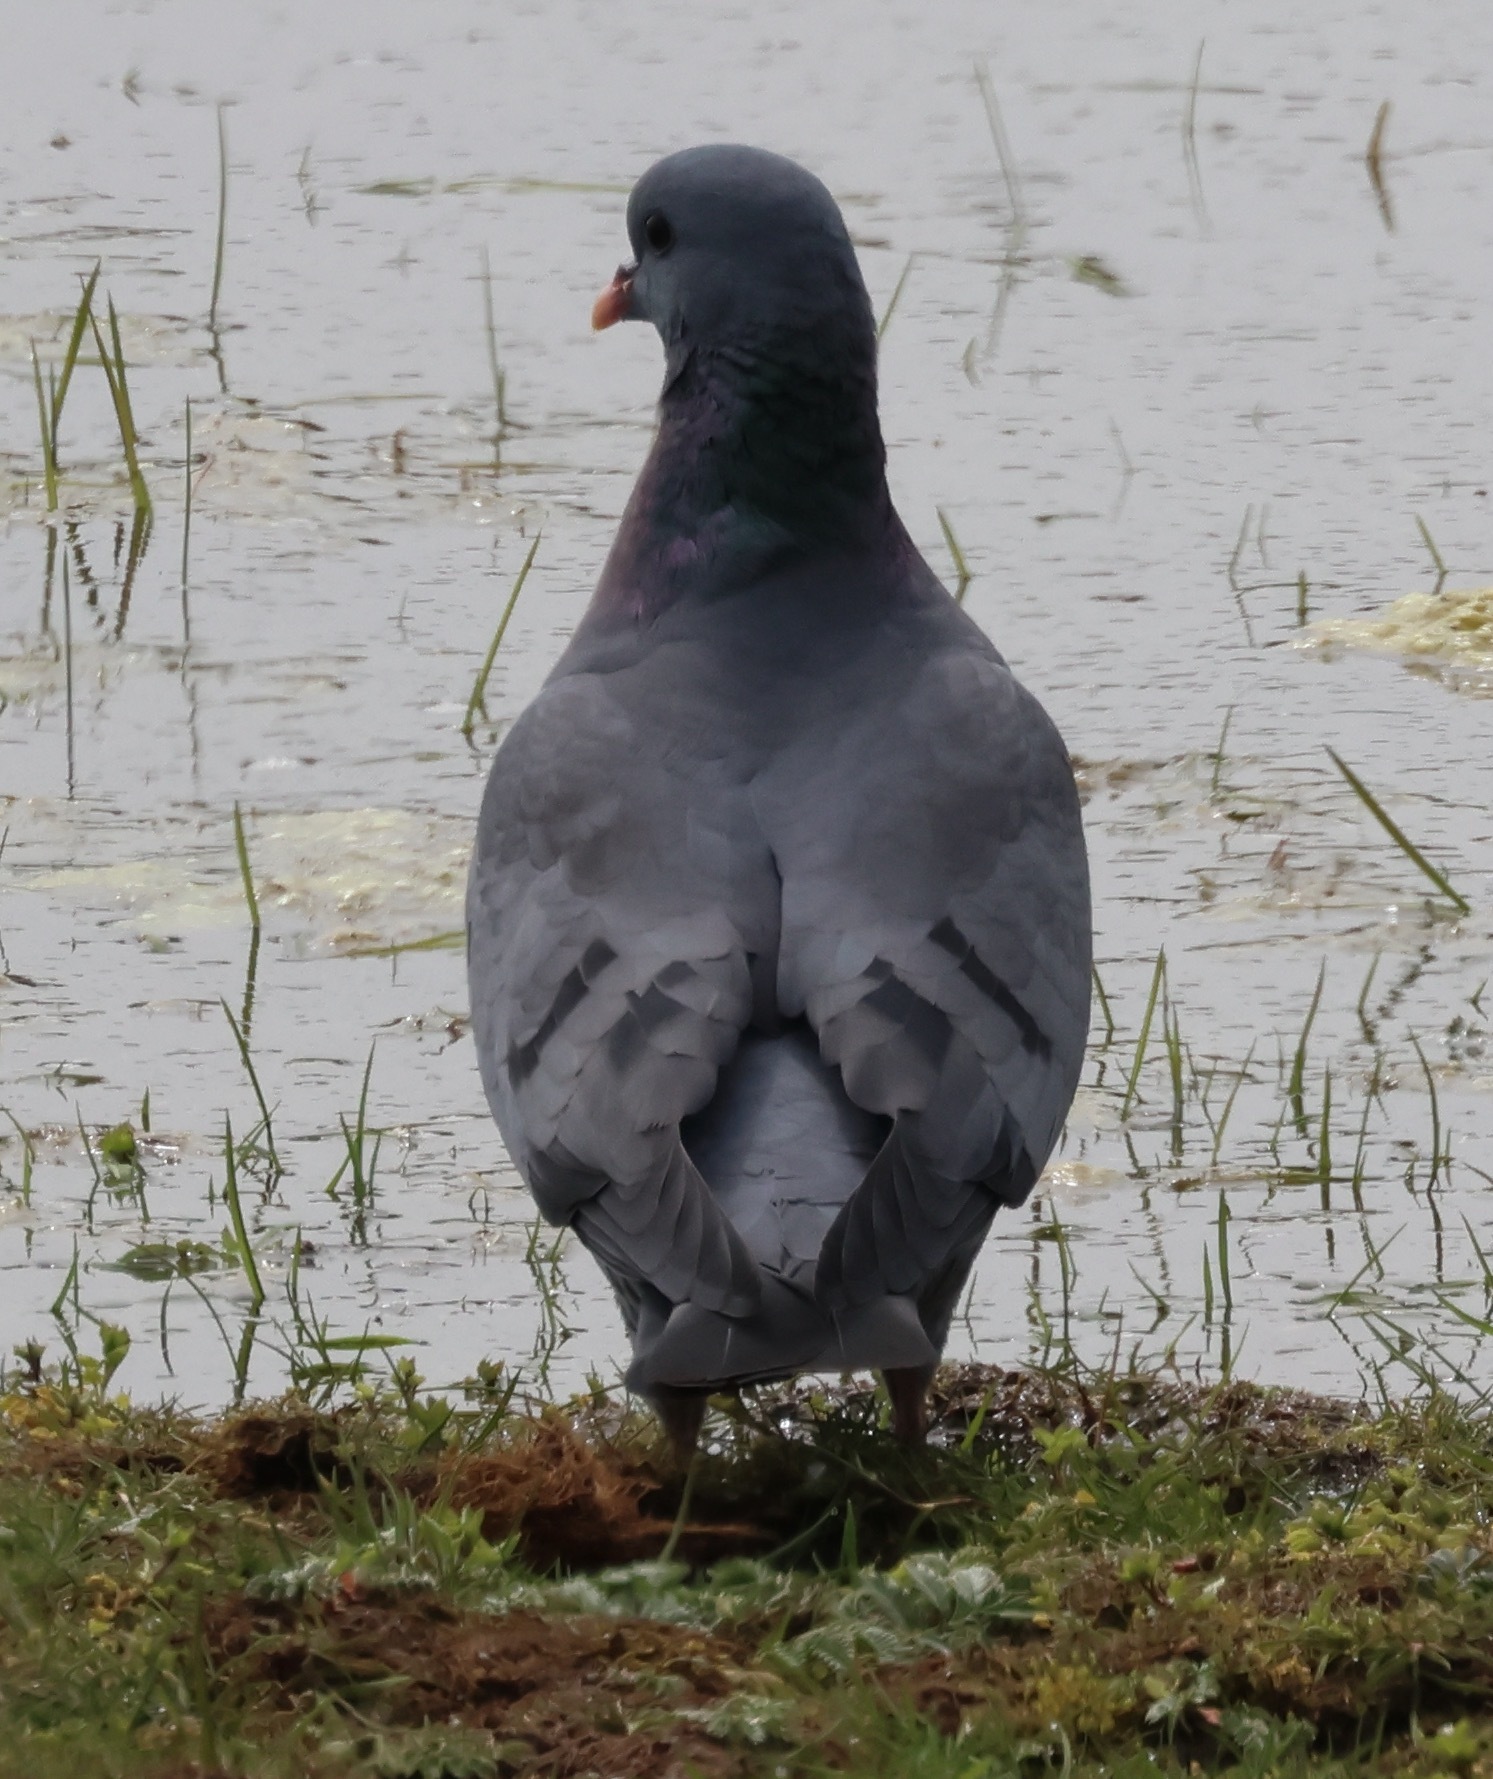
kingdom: Animalia
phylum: Chordata
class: Aves
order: Columbiformes
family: Columbidae
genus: Columba
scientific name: Columba oenas
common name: Stock dove
